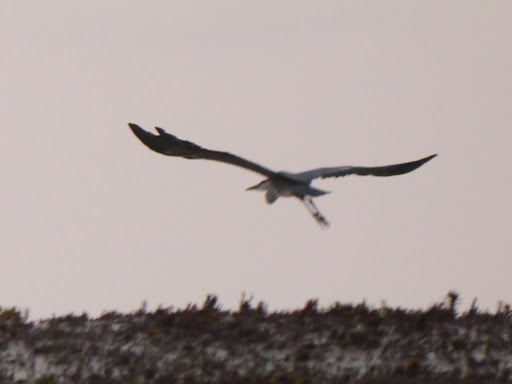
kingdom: Animalia
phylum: Chordata
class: Aves
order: Pelecaniformes
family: Ardeidae
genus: Ardea
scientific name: Ardea cinerea
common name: Grey heron
